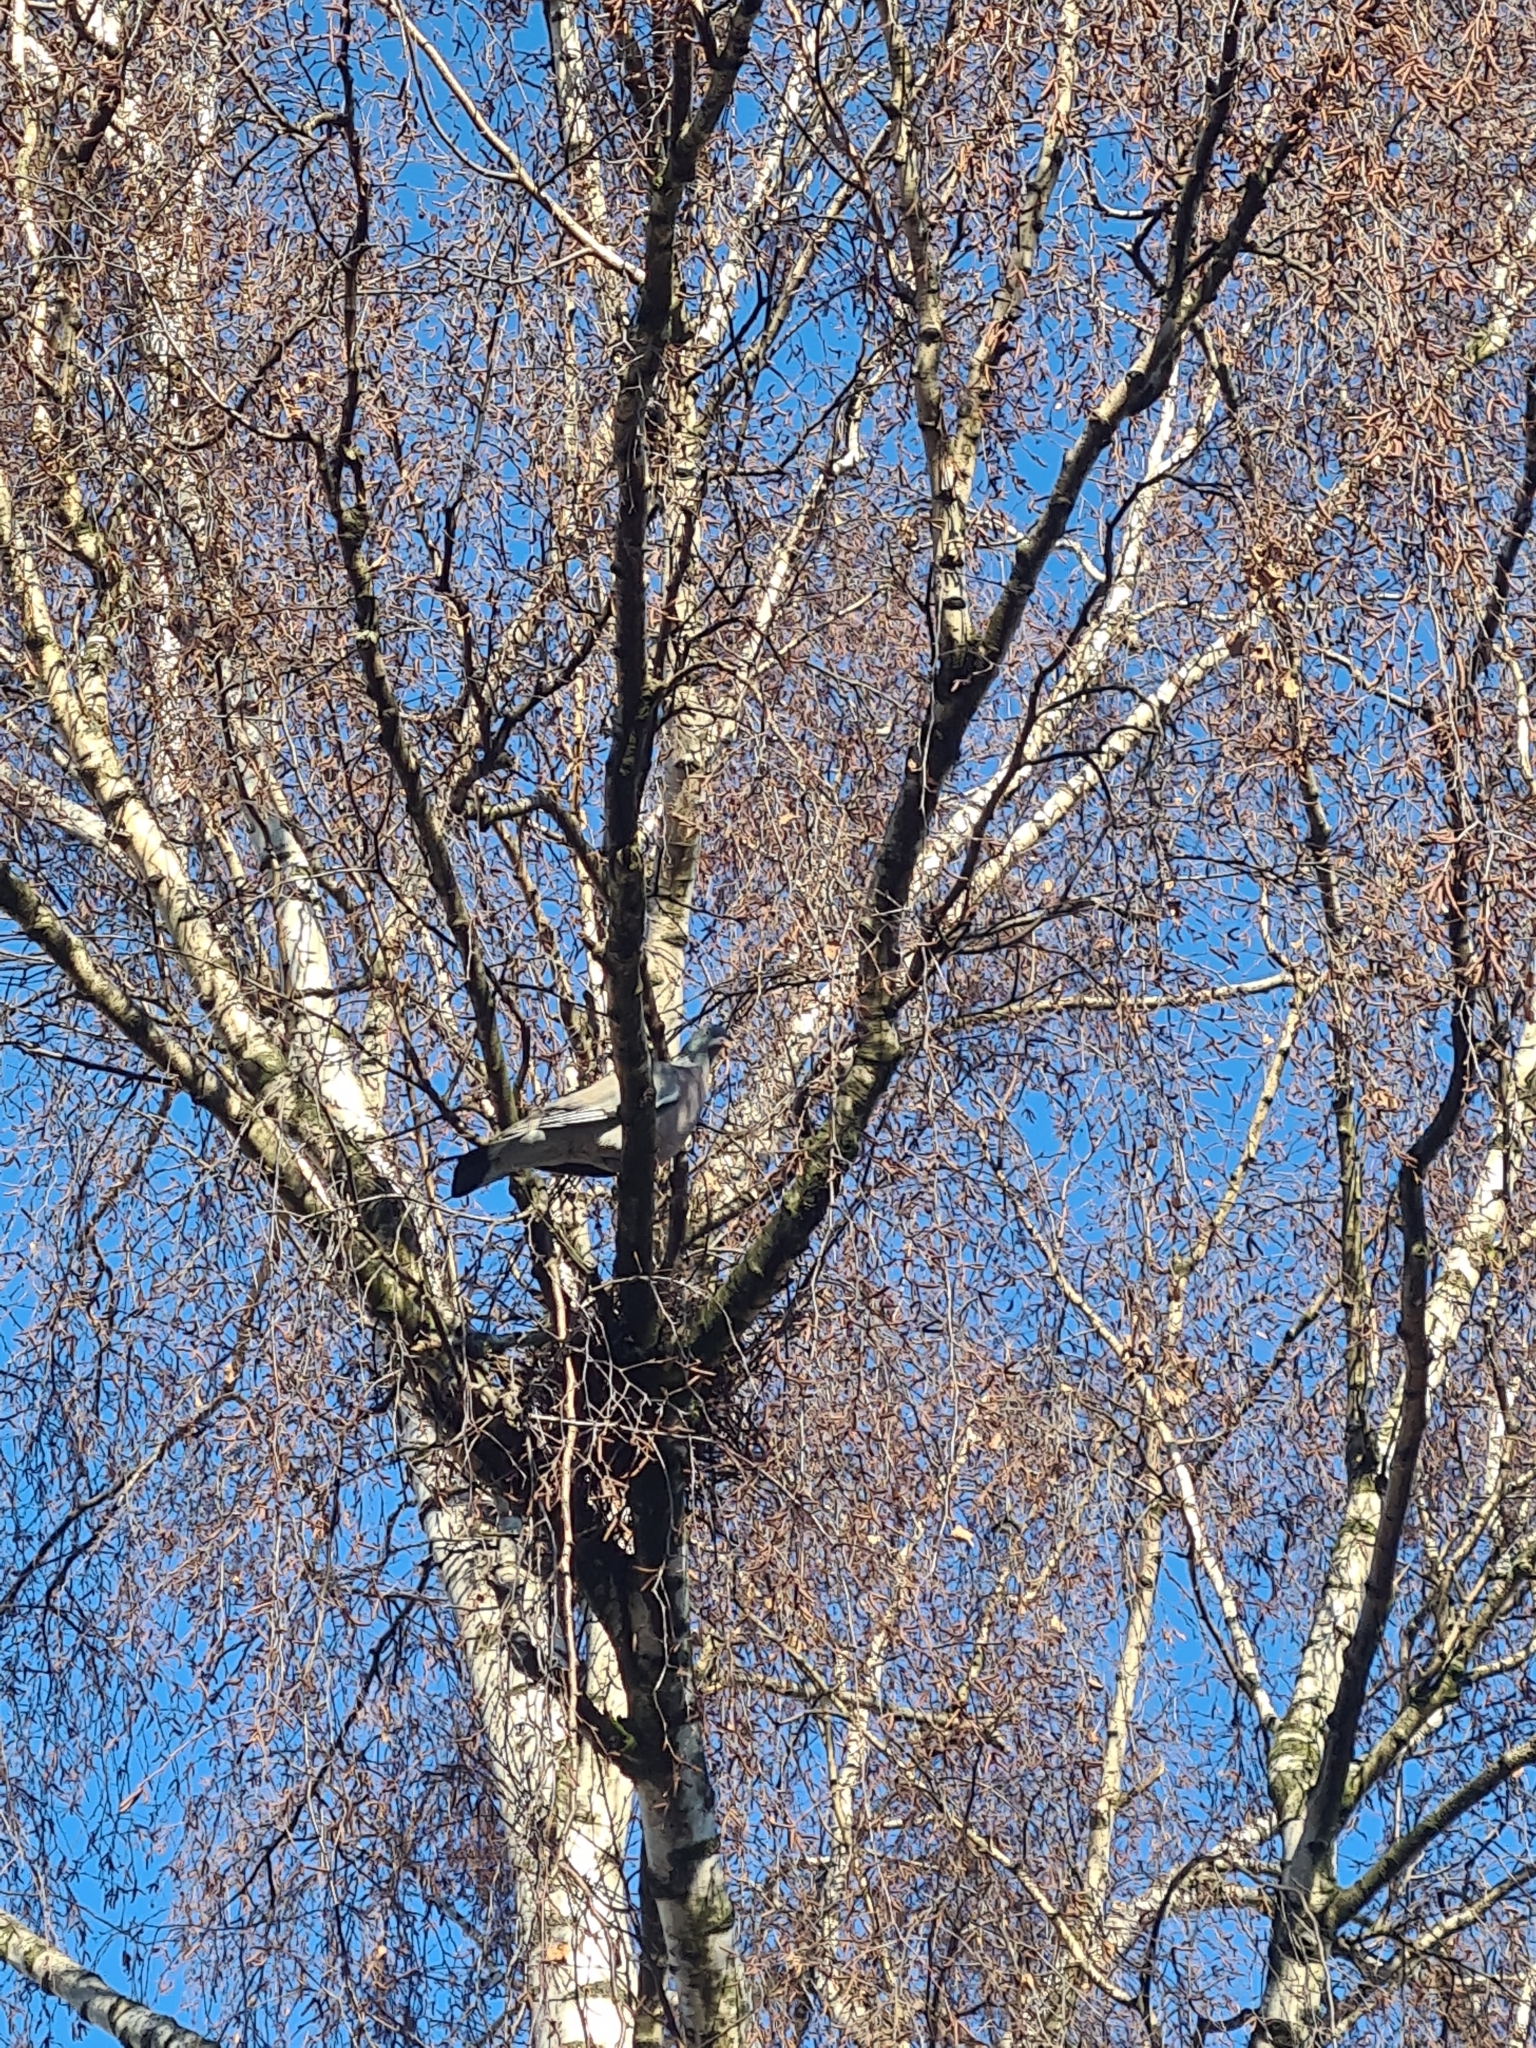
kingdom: Animalia
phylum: Chordata
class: Aves
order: Columbiformes
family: Columbidae
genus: Columba
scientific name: Columba palumbus
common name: Common wood pigeon
